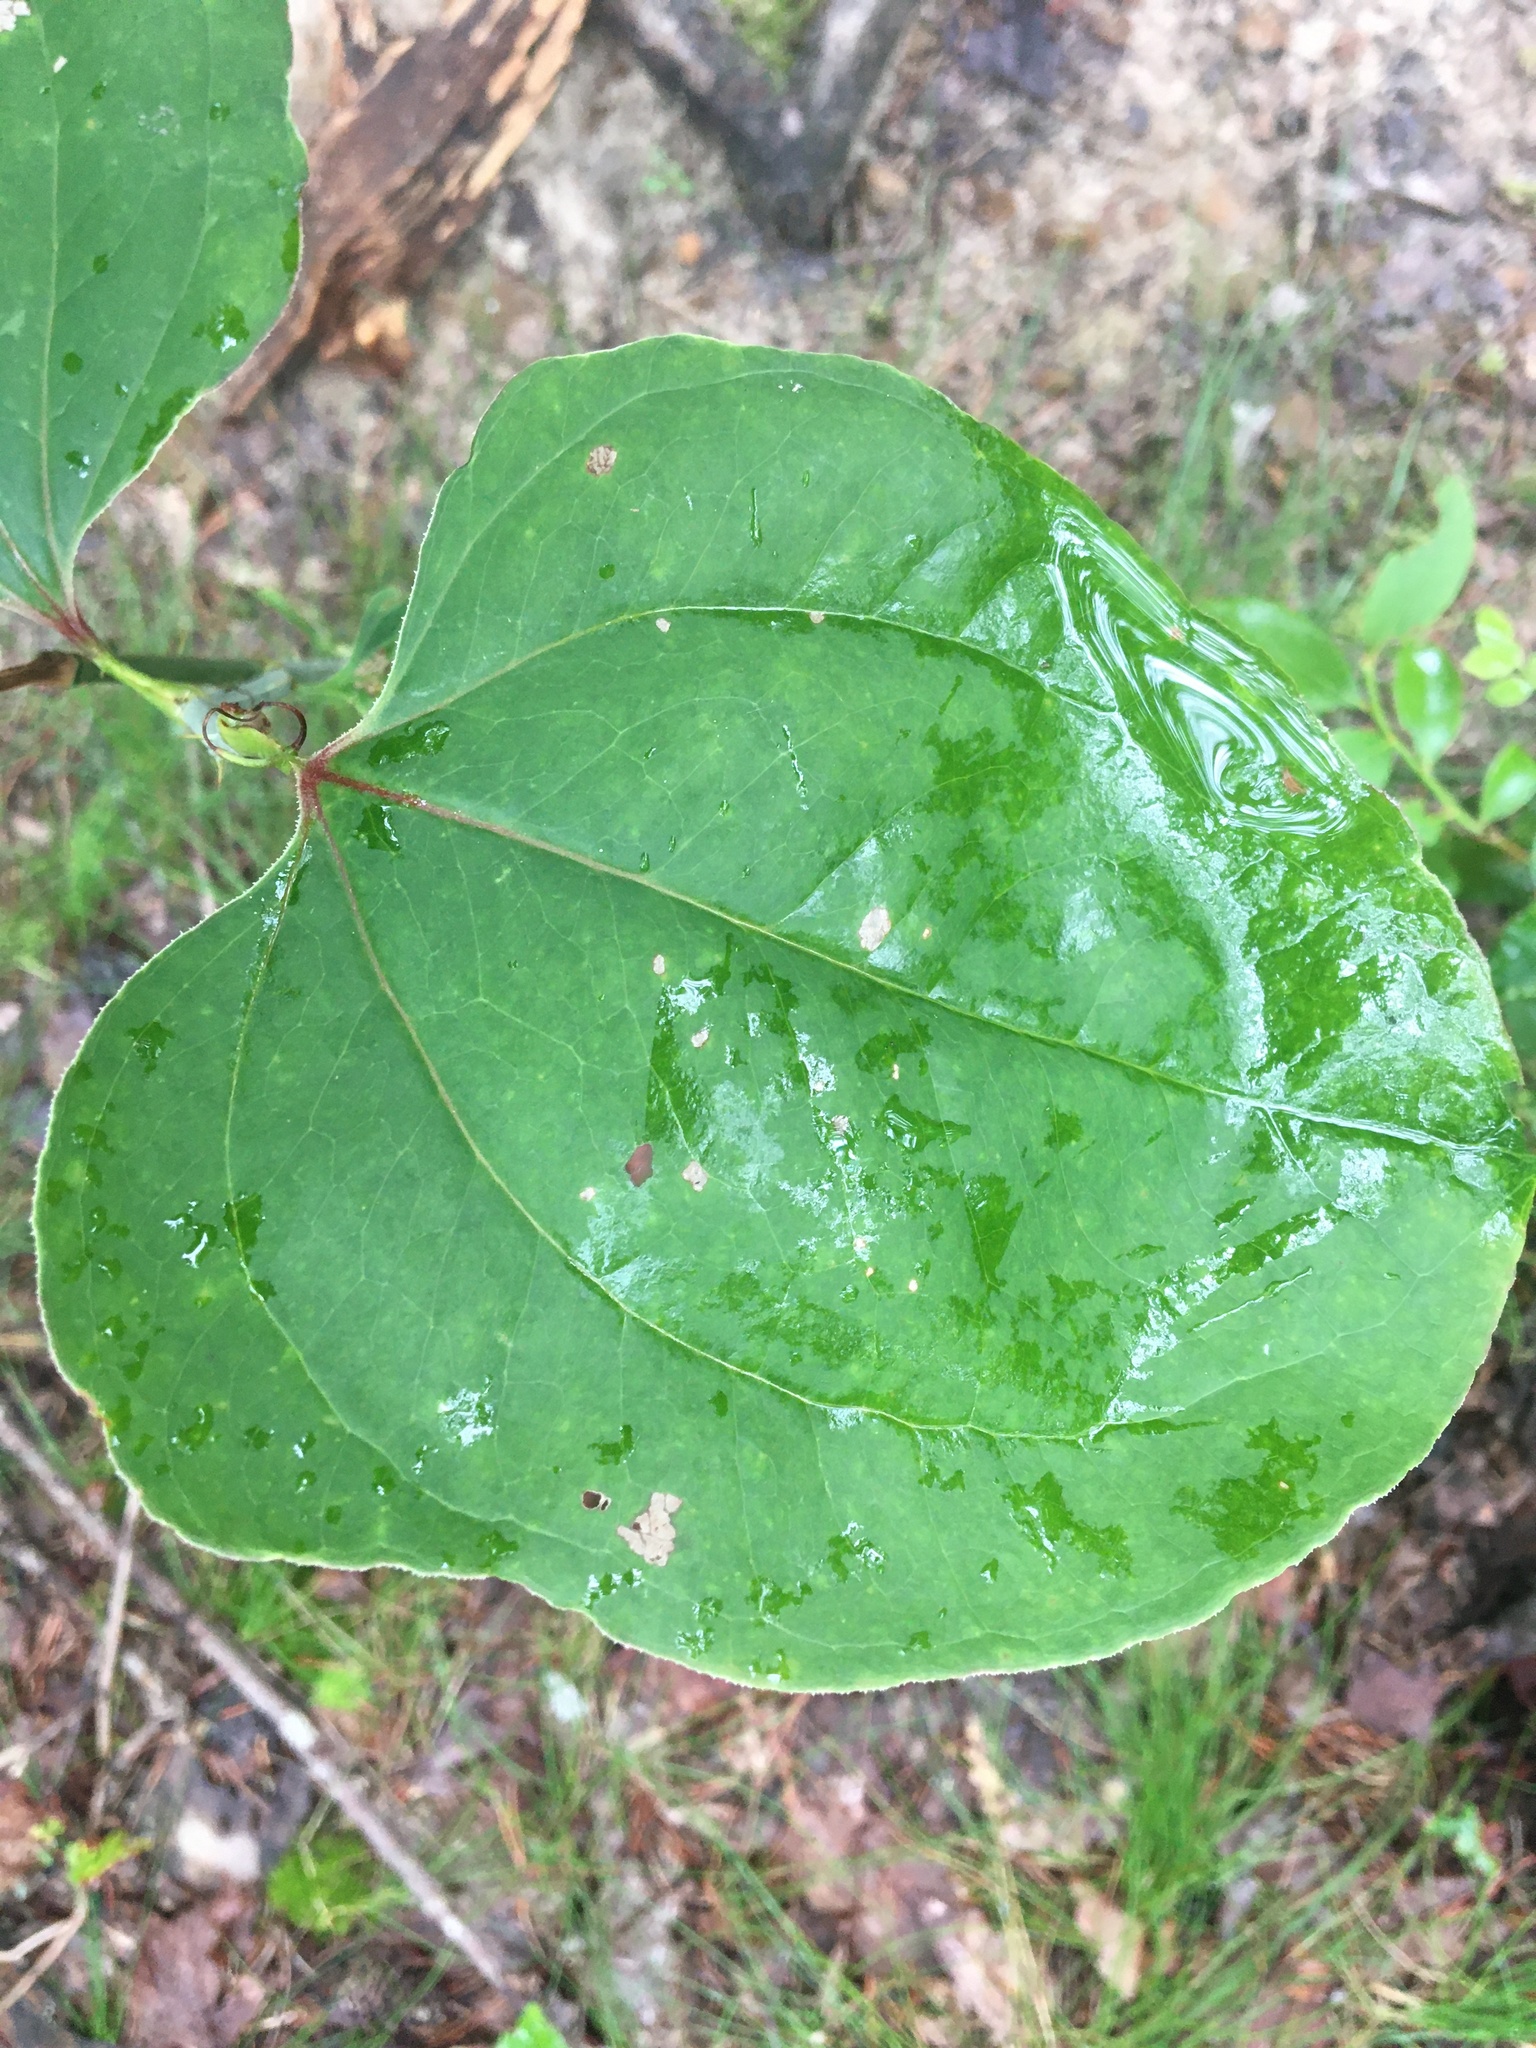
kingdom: Plantae
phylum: Tracheophyta
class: Liliopsida
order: Liliales
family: Smilacaceae
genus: Smilax
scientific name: Smilax rotundifolia
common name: Bullbriar
